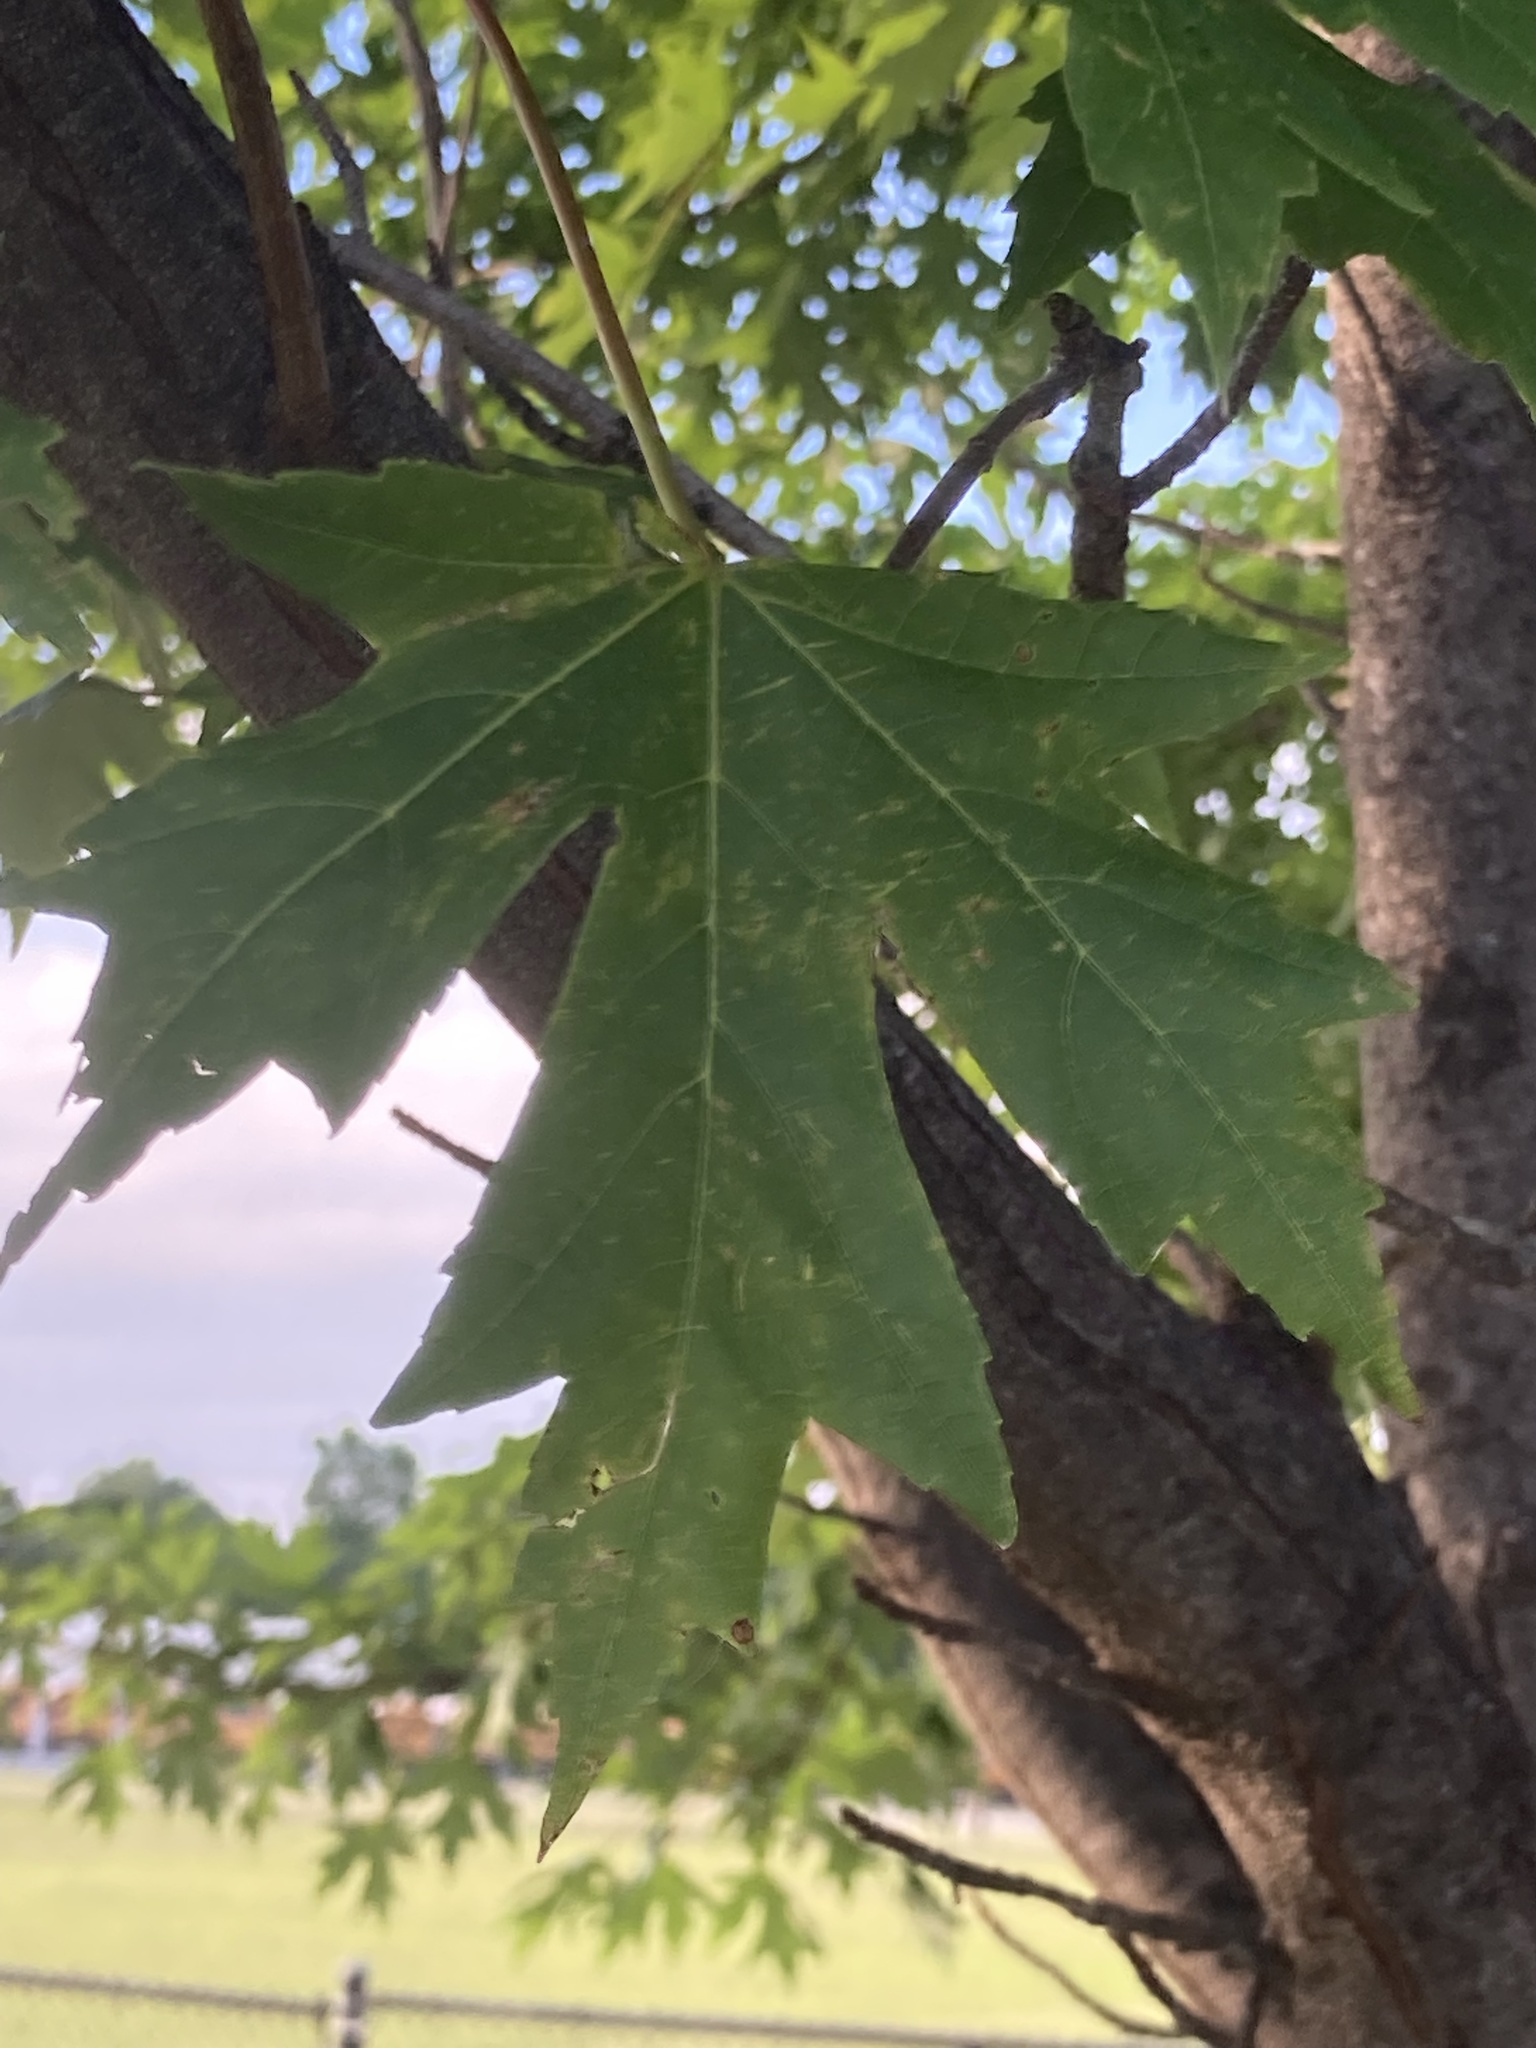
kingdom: Plantae
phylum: Tracheophyta
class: Magnoliopsida
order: Sapindales
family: Sapindaceae
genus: Acer
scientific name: Acer saccharinum
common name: Silver maple
